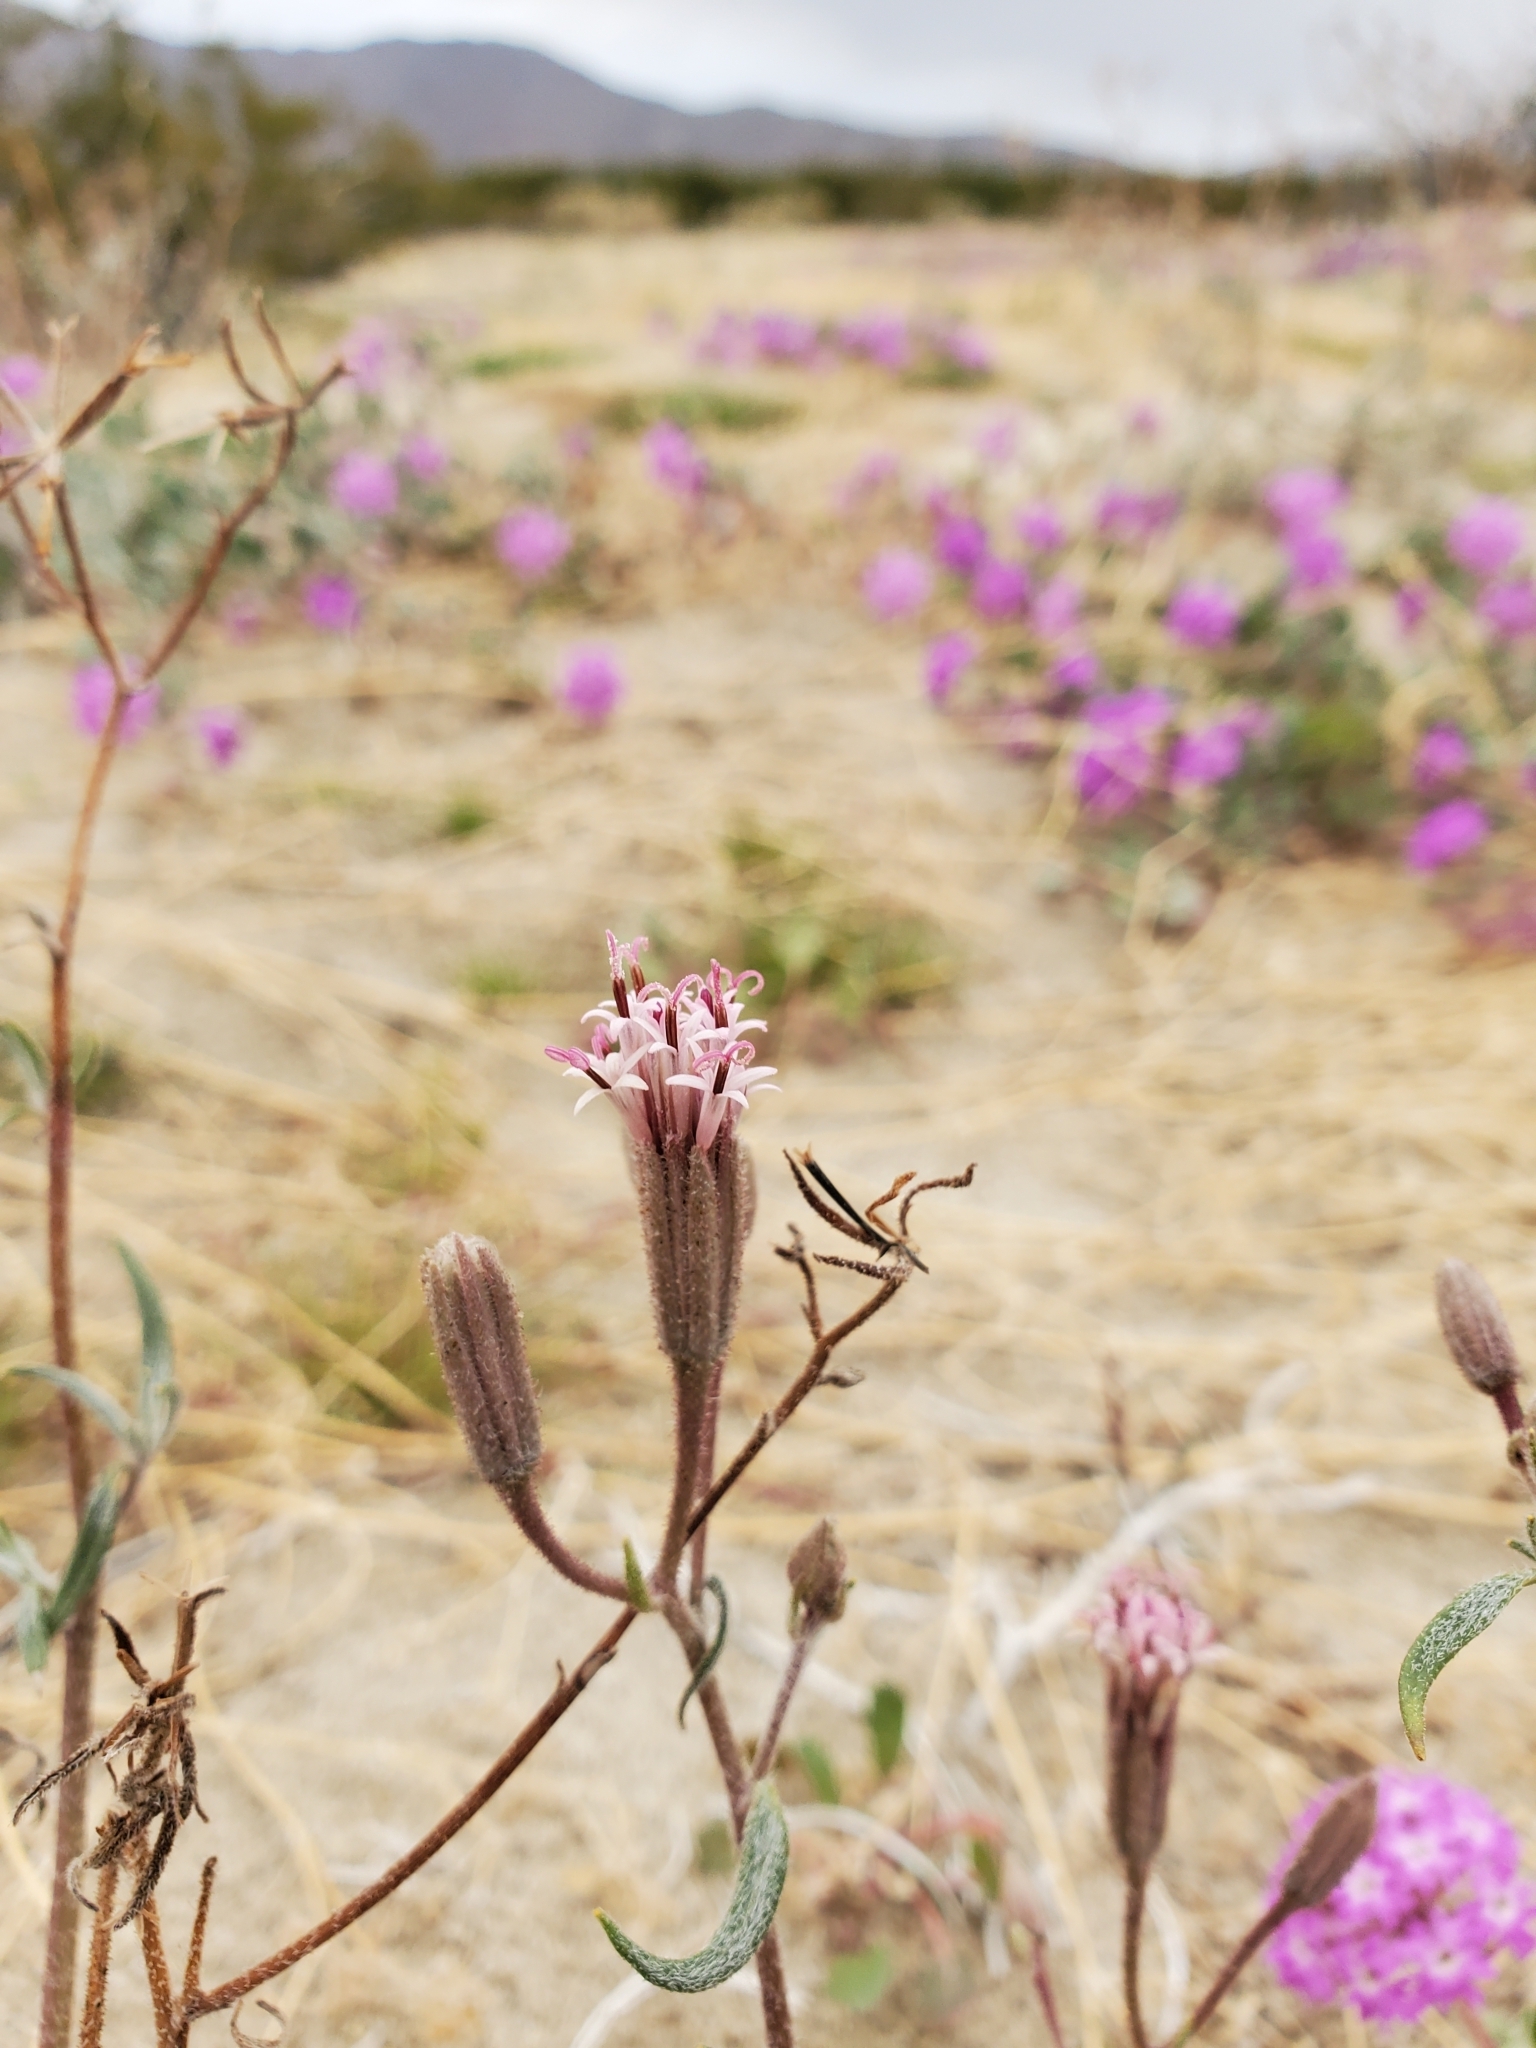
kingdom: Plantae
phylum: Tracheophyta
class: Magnoliopsida
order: Asterales
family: Asteraceae
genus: Palafoxia
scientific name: Palafoxia arida
